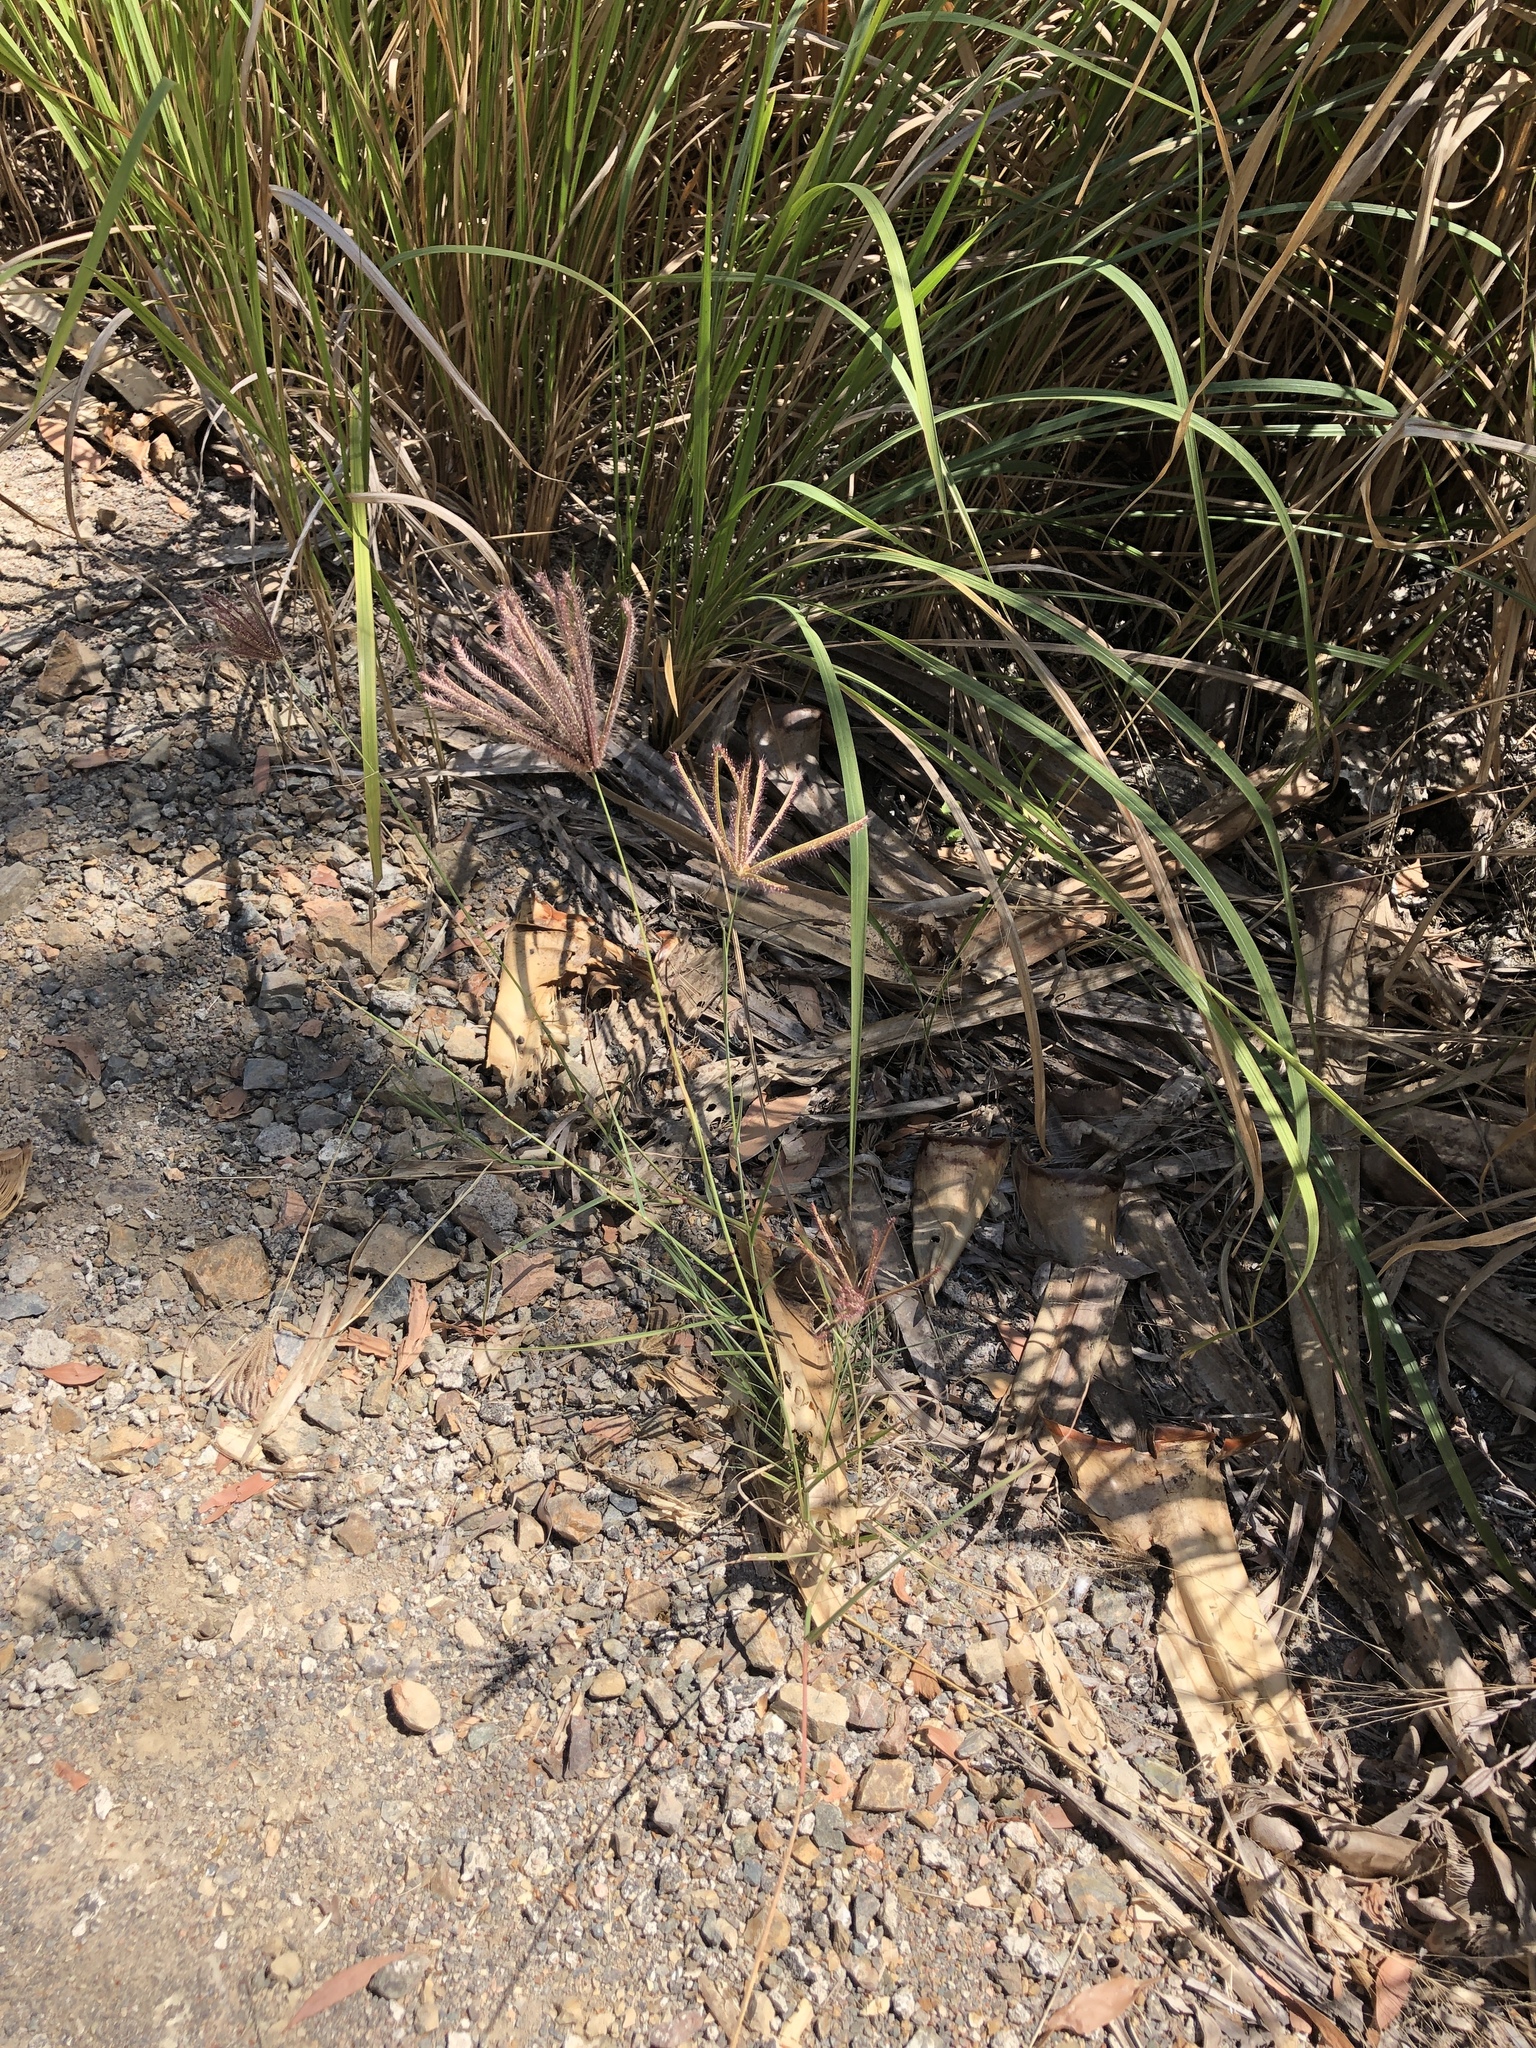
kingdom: Plantae
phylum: Tracheophyta
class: Liliopsida
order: Poales
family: Poaceae
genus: Chloris
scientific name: Chloris barbata
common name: Swollen fingergrass
